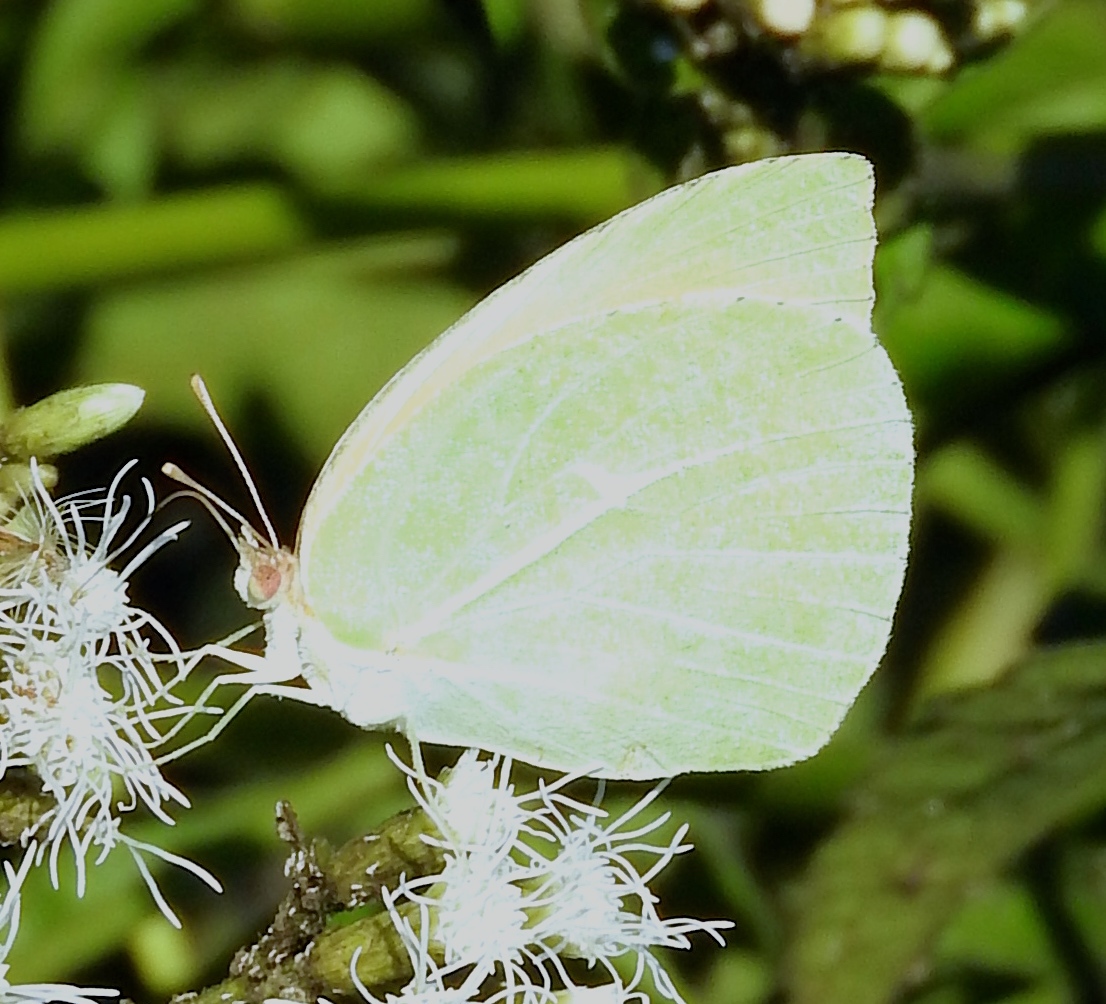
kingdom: Animalia
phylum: Arthropoda
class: Insecta
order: Lepidoptera
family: Pieridae
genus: Kricogonia
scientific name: Kricogonia lyside
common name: Guayacan sulphur,
